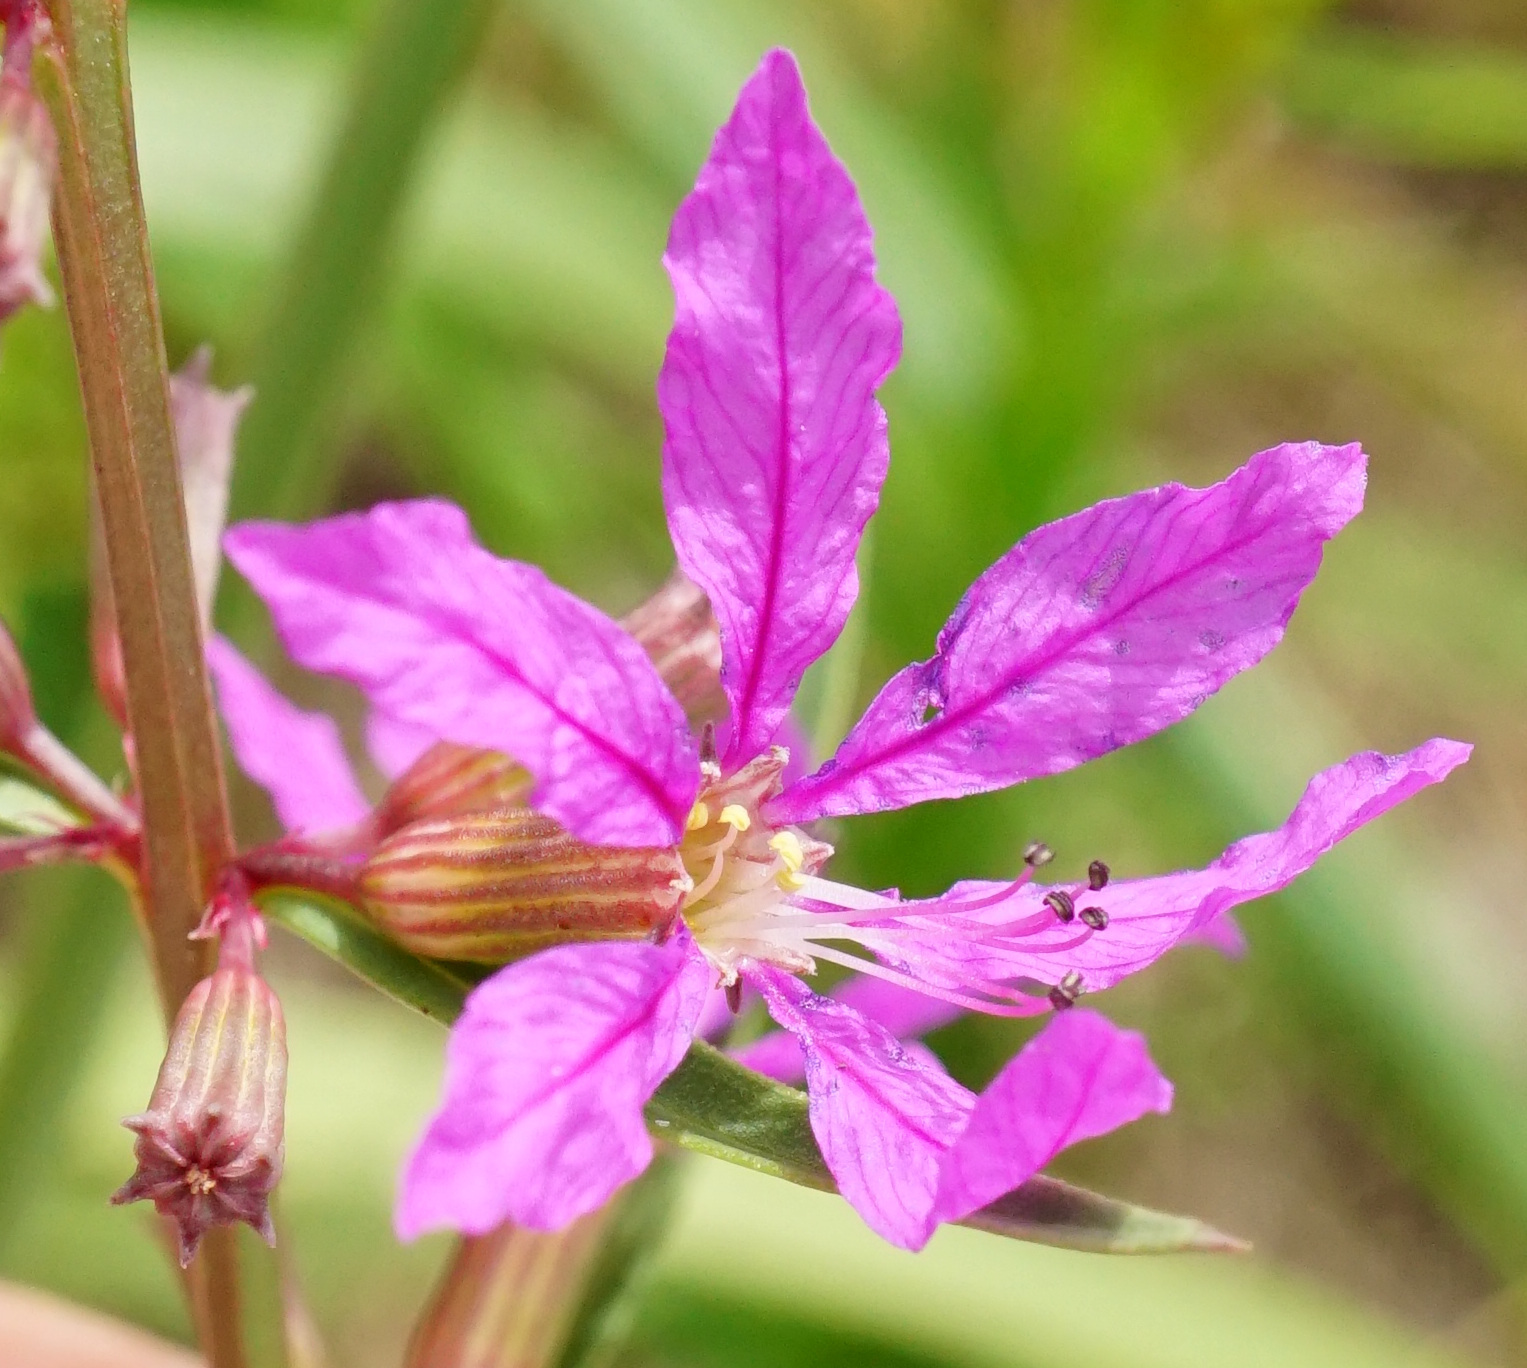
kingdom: Plantae
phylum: Tracheophyta
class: Magnoliopsida
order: Myrtales
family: Lythraceae
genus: Lythrum
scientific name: Lythrum virgatum
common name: European wand loosestrife
